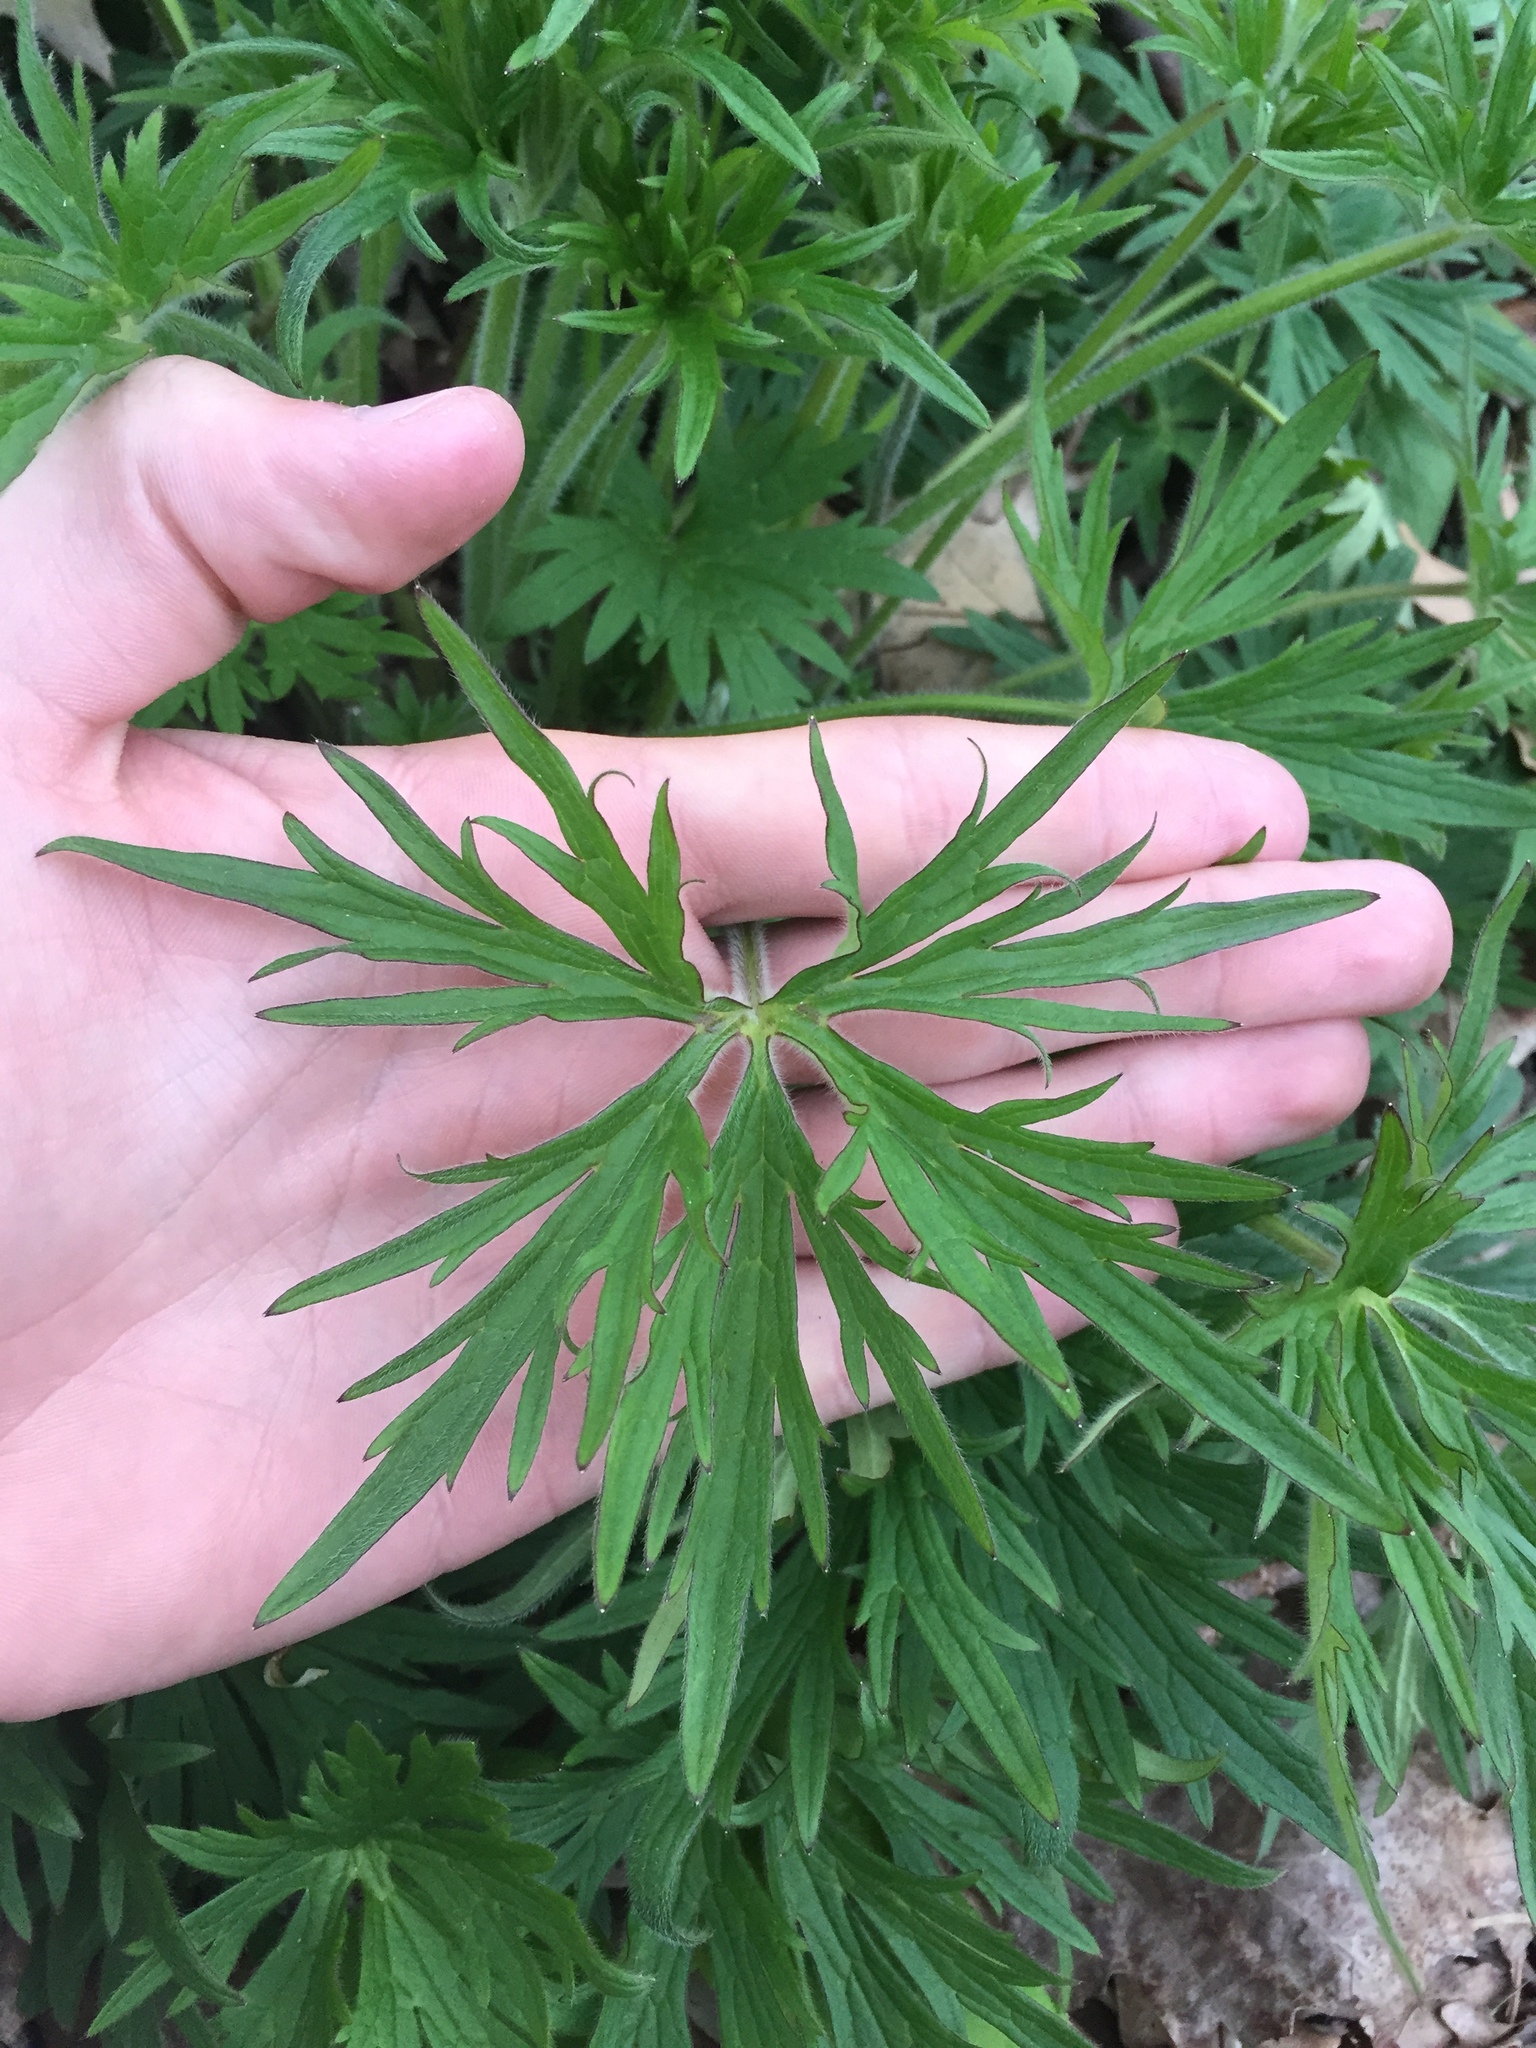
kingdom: Plantae
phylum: Tracheophyta
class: Magnoliopsida
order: Ranunculales
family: Ranunculaceae
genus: Ranunculus
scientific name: Ranunculus acris
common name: Meadow buttercup
